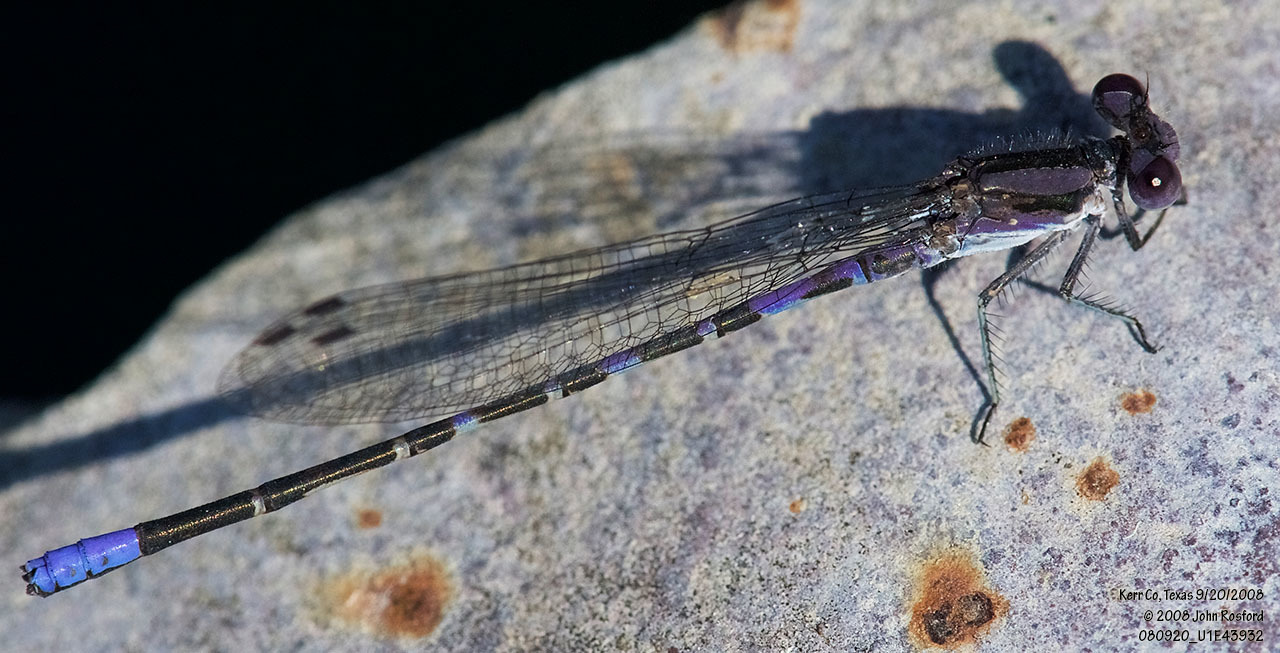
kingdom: Animalia
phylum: Arthropoda
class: Insecta
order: Odonata
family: Coenagrionidae
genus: Argia
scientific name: Argia immunda
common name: Kiowa dancer
